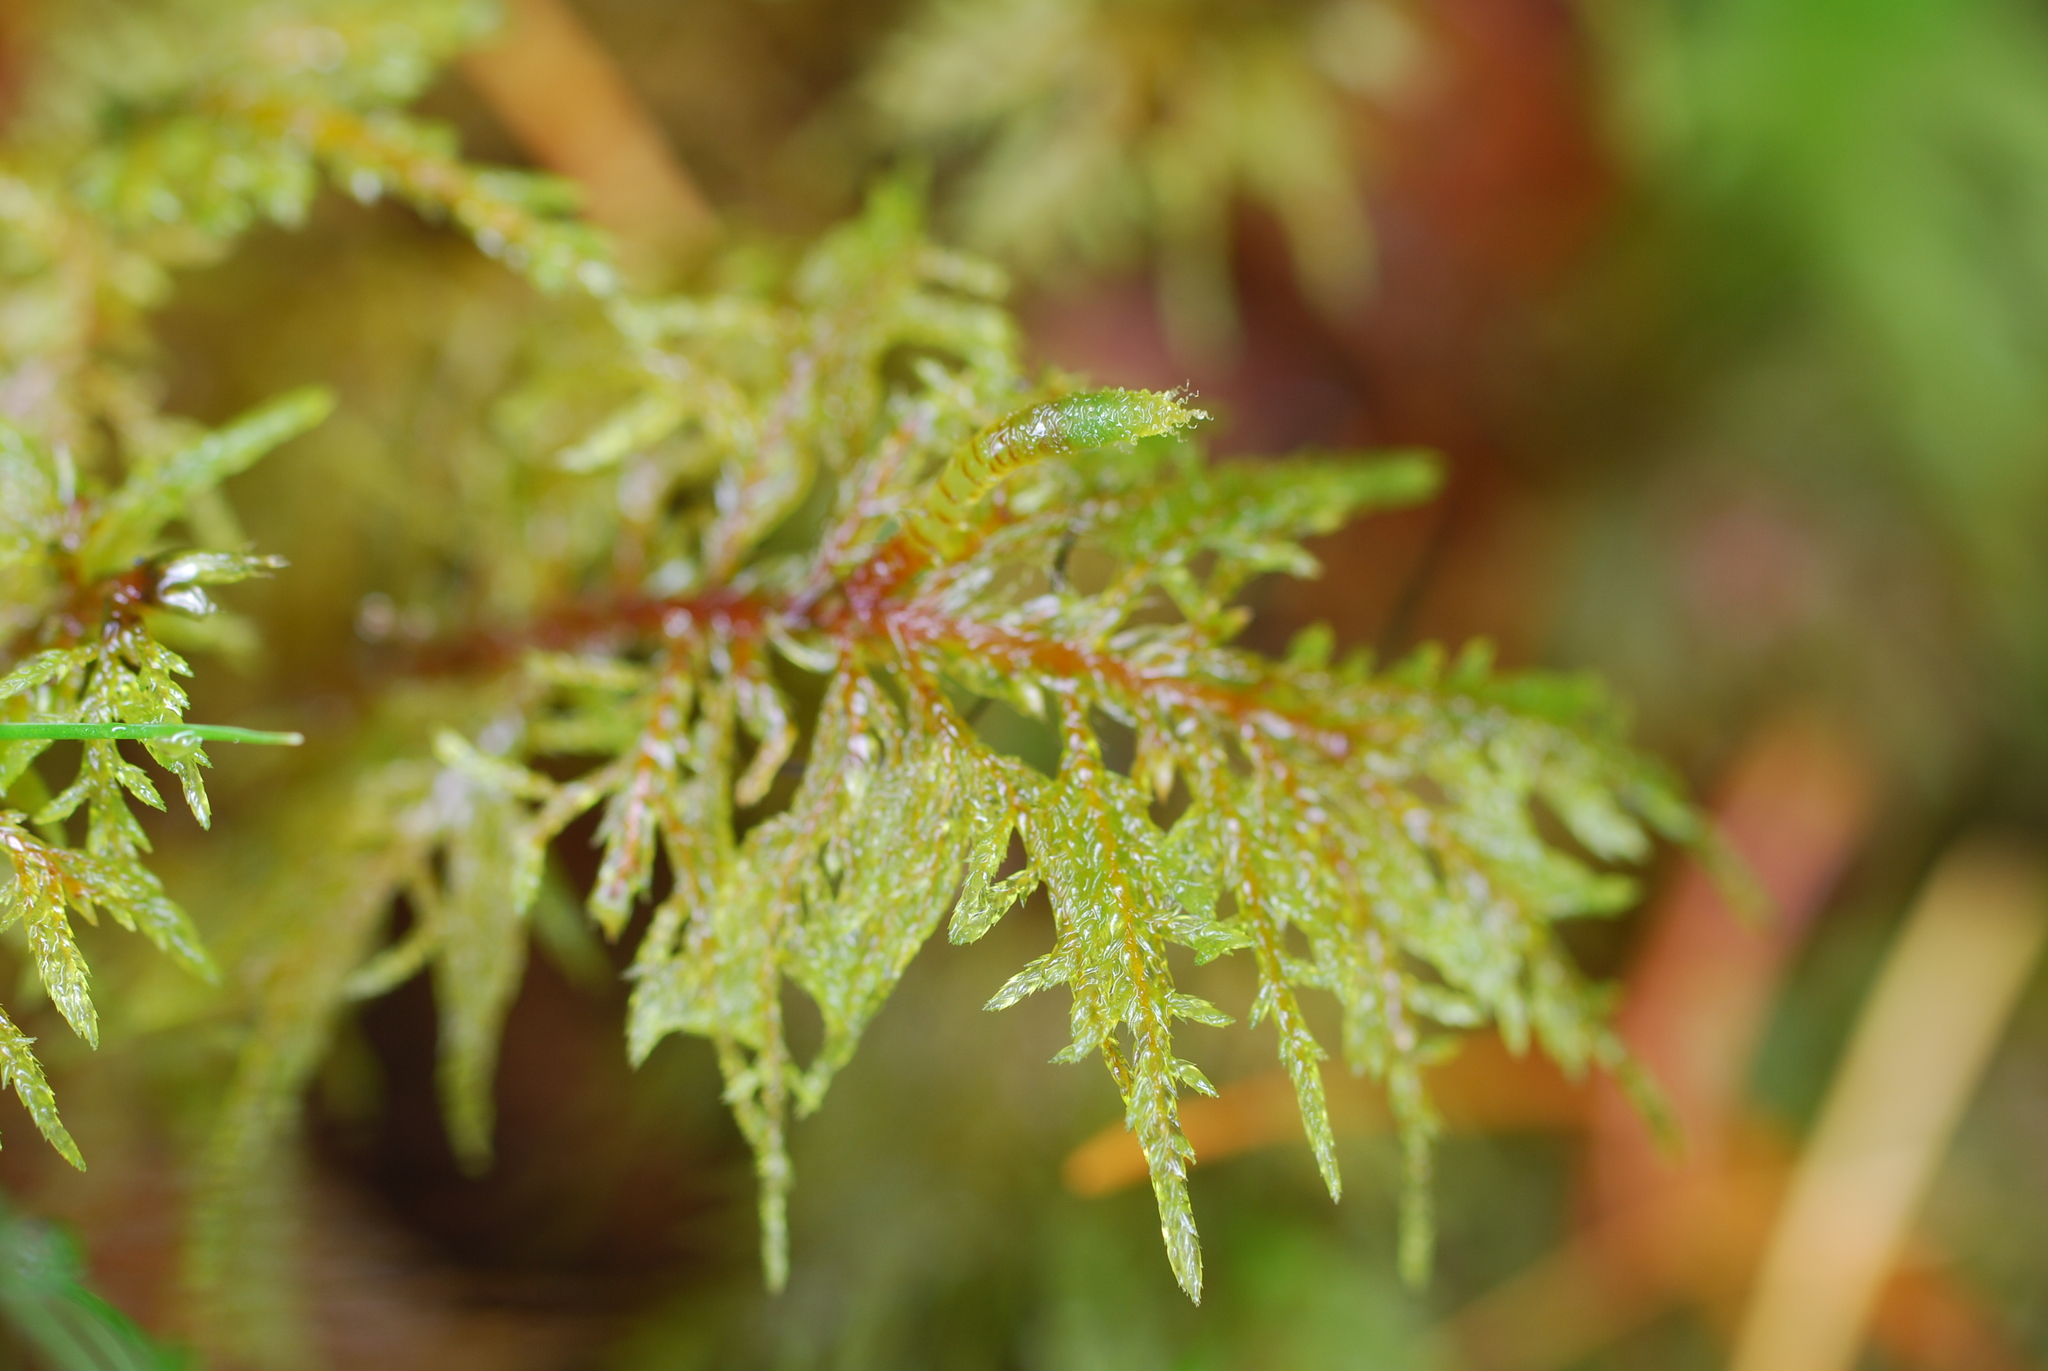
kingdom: Plantae
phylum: Bryophyta
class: Bryopsida
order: Hypnales
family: Hylocomiaceae
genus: Hylocomium
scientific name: Hylocomium splendens
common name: Stairstep moss
